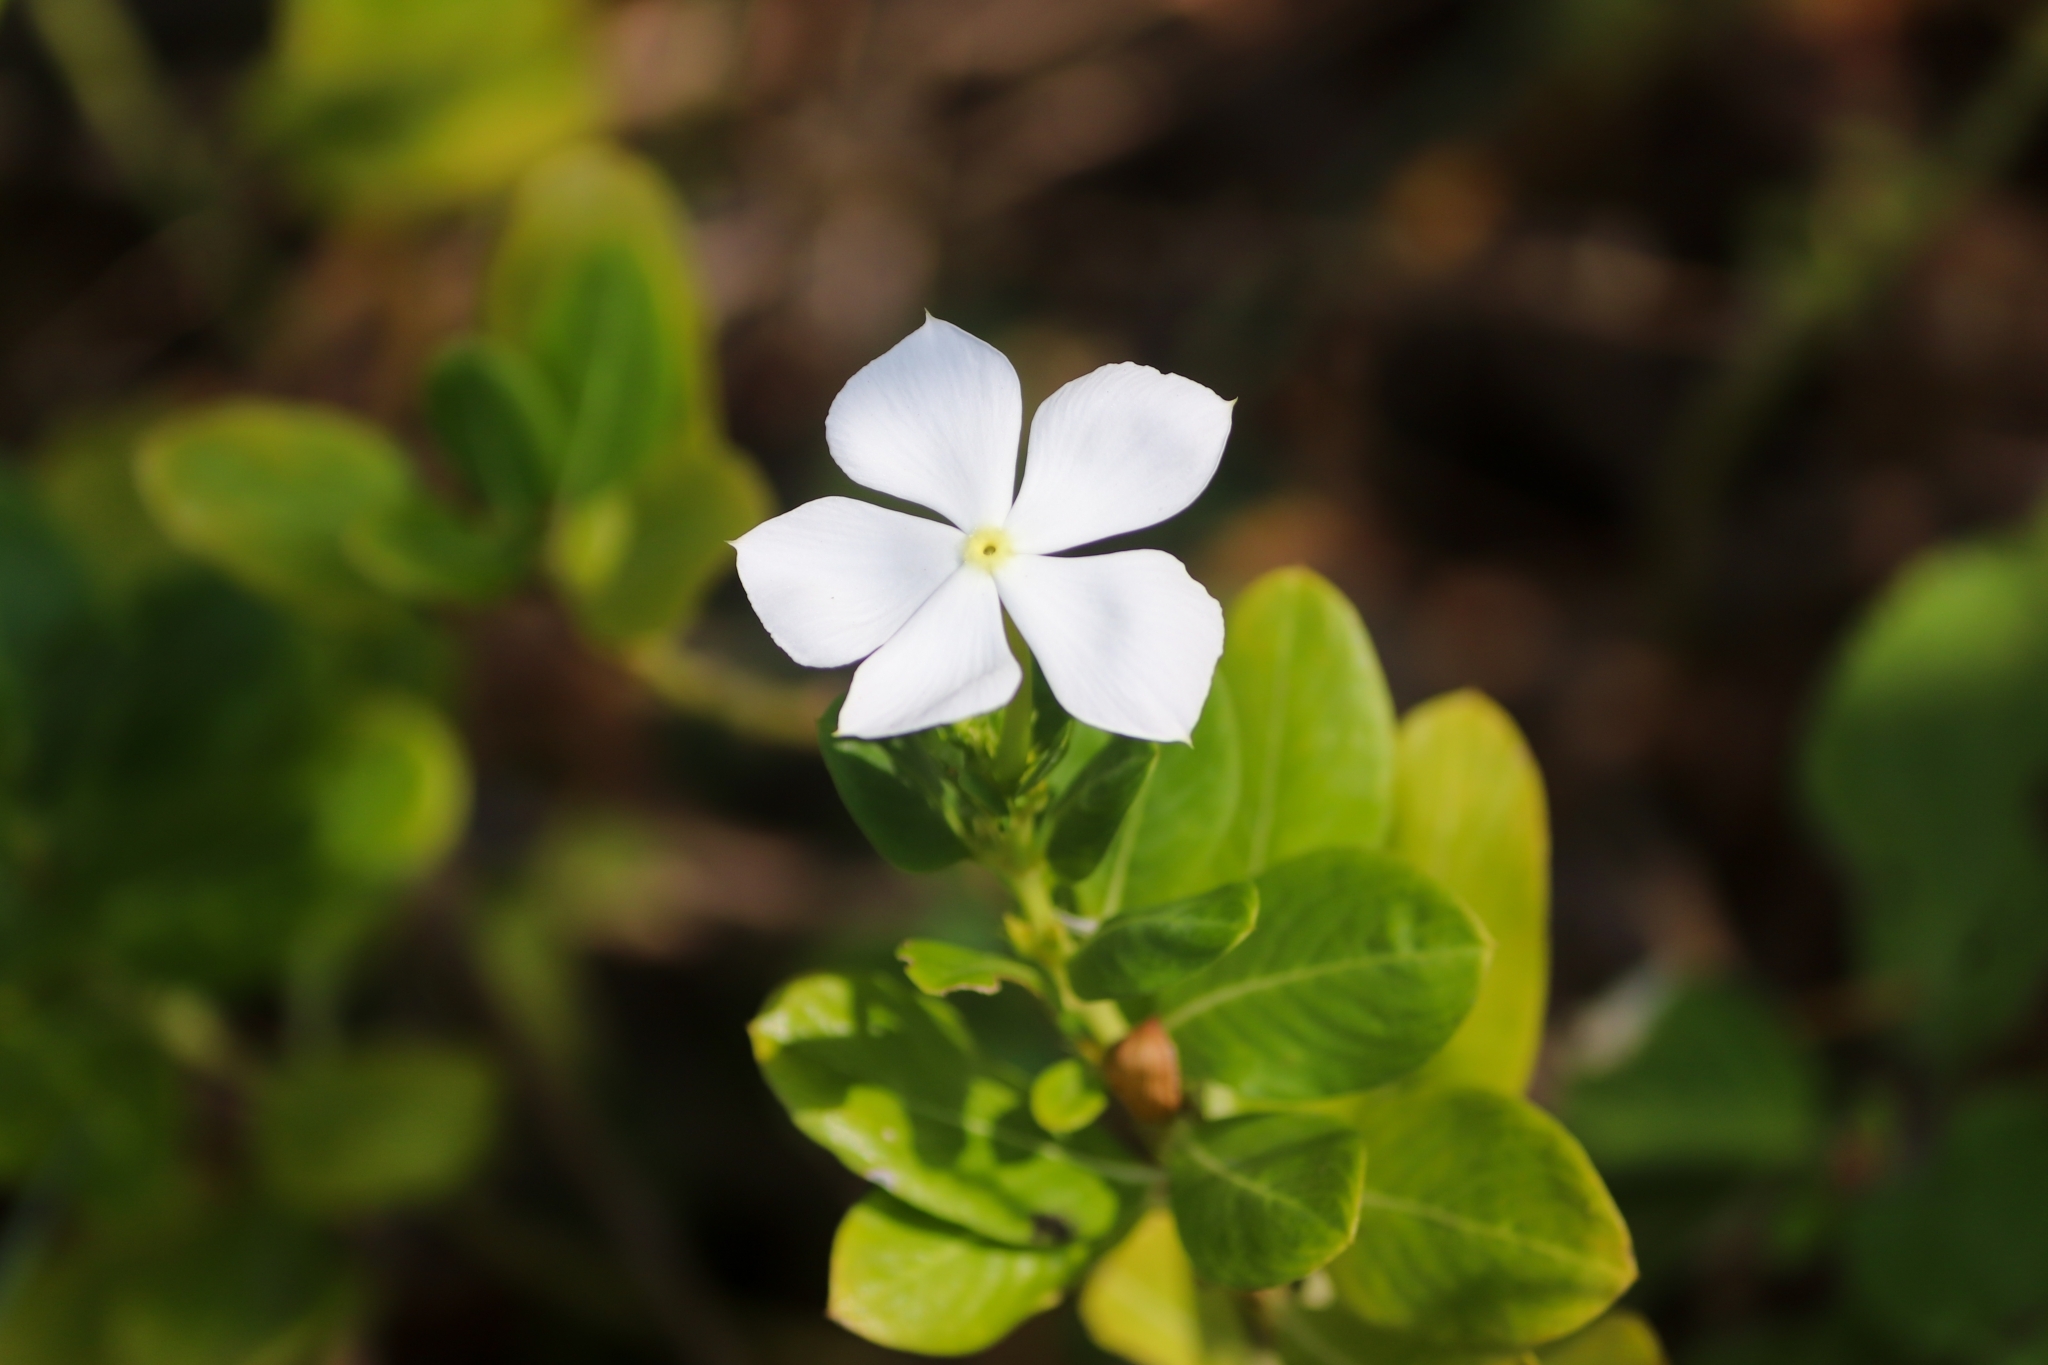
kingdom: Plantae
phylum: Tracheophyta
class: Magnoliopsida
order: Gentianales
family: Apocynaceae
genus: Catharanthus
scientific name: Catharanthus roseus
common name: Madagascar periwinkle
